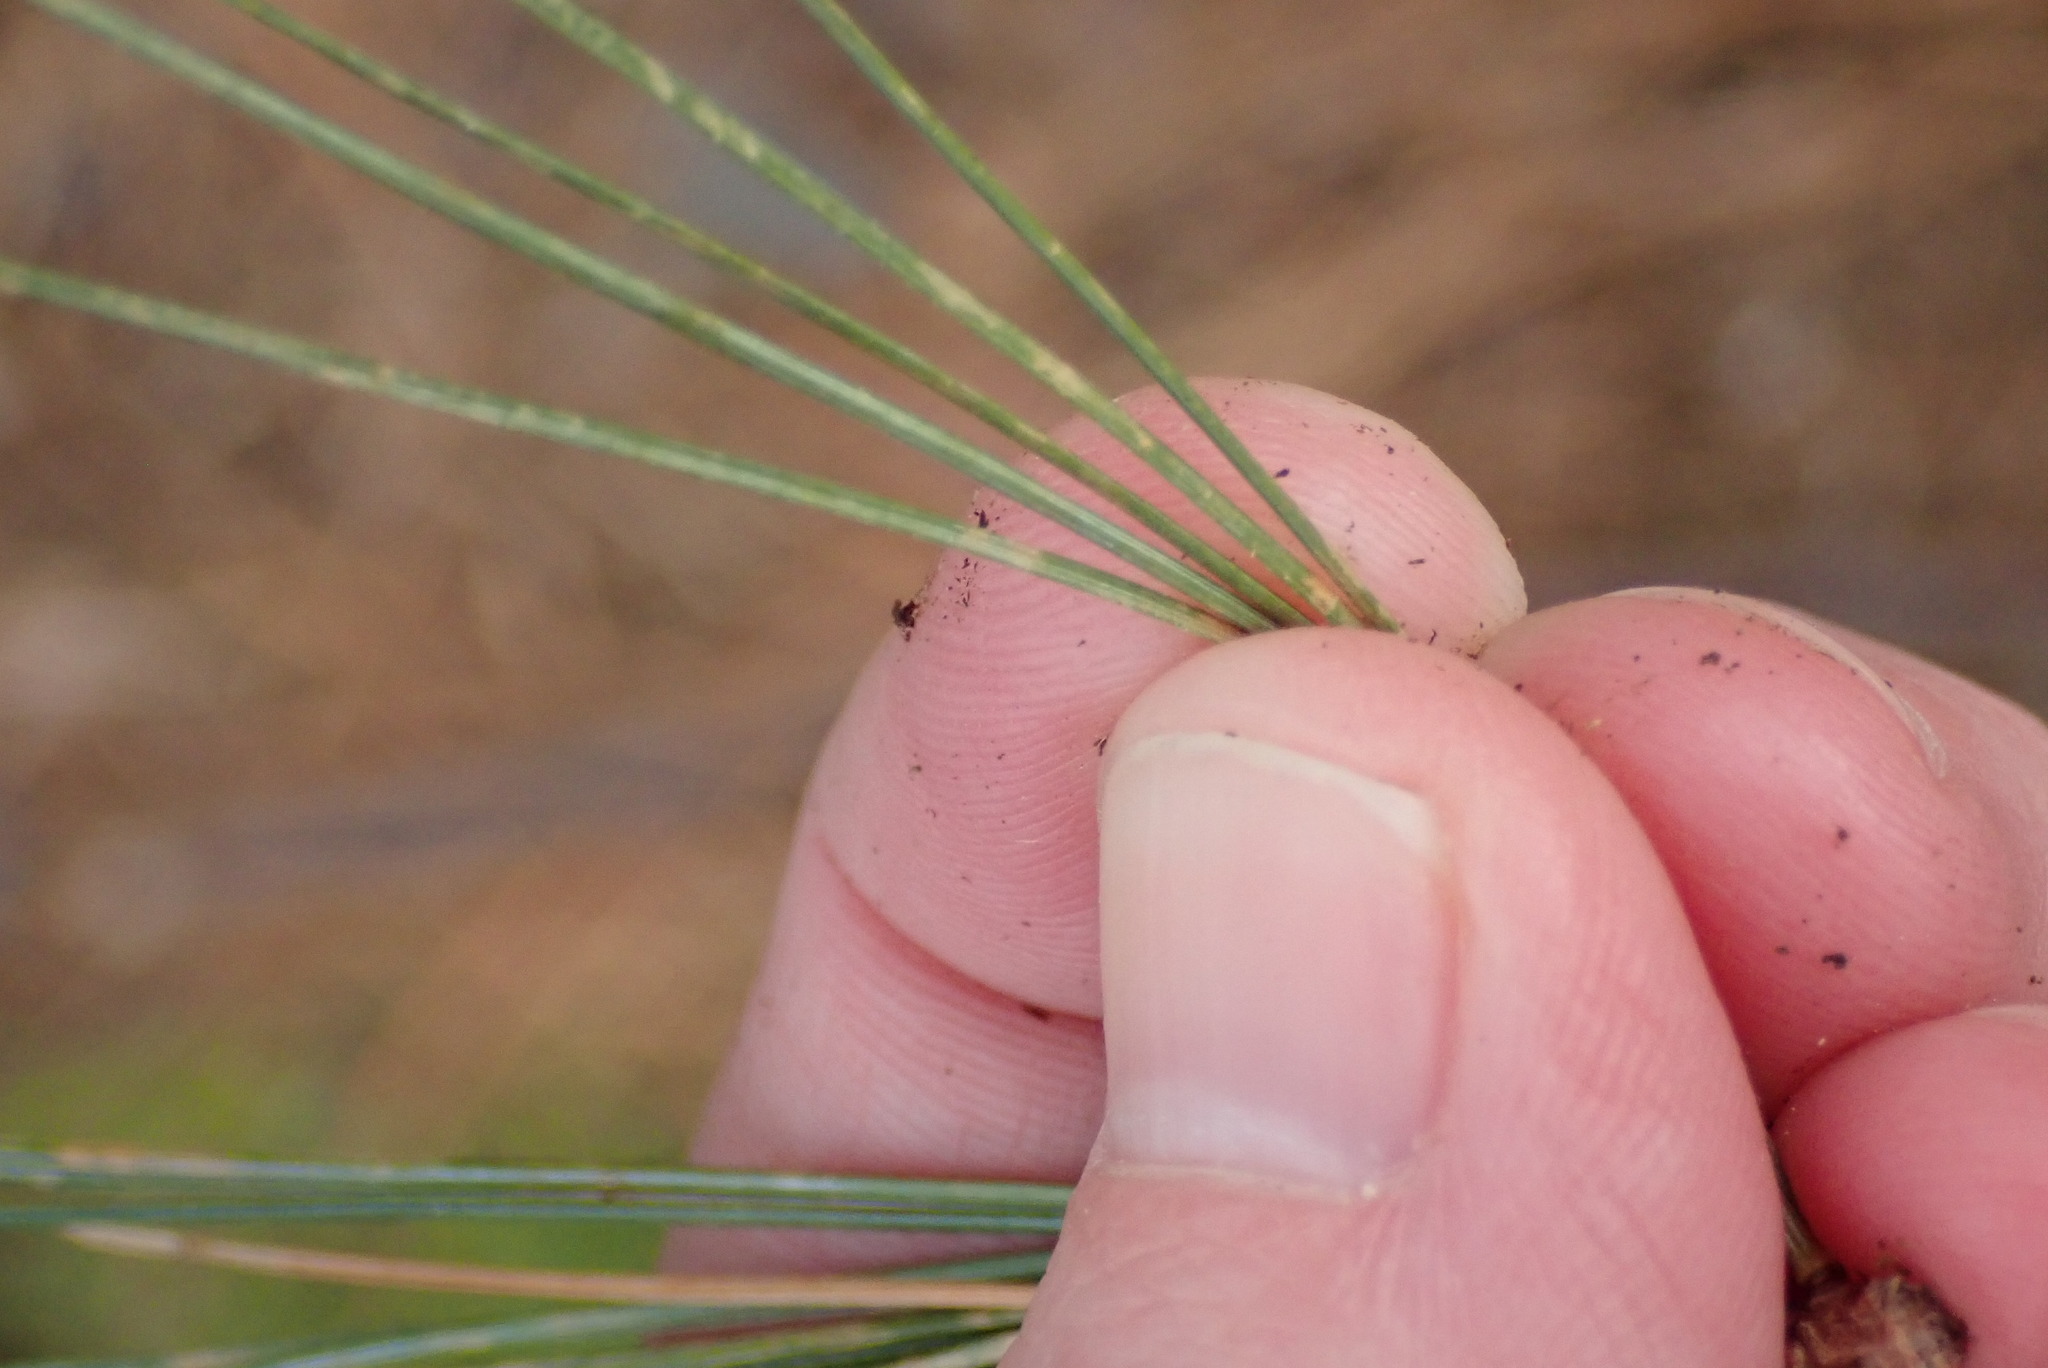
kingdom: Plantae
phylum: Tracheophyta
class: Pinopsida
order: Pinales
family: Pinaceae
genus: Pinus
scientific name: Pinus strobus
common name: Weymouth pine
